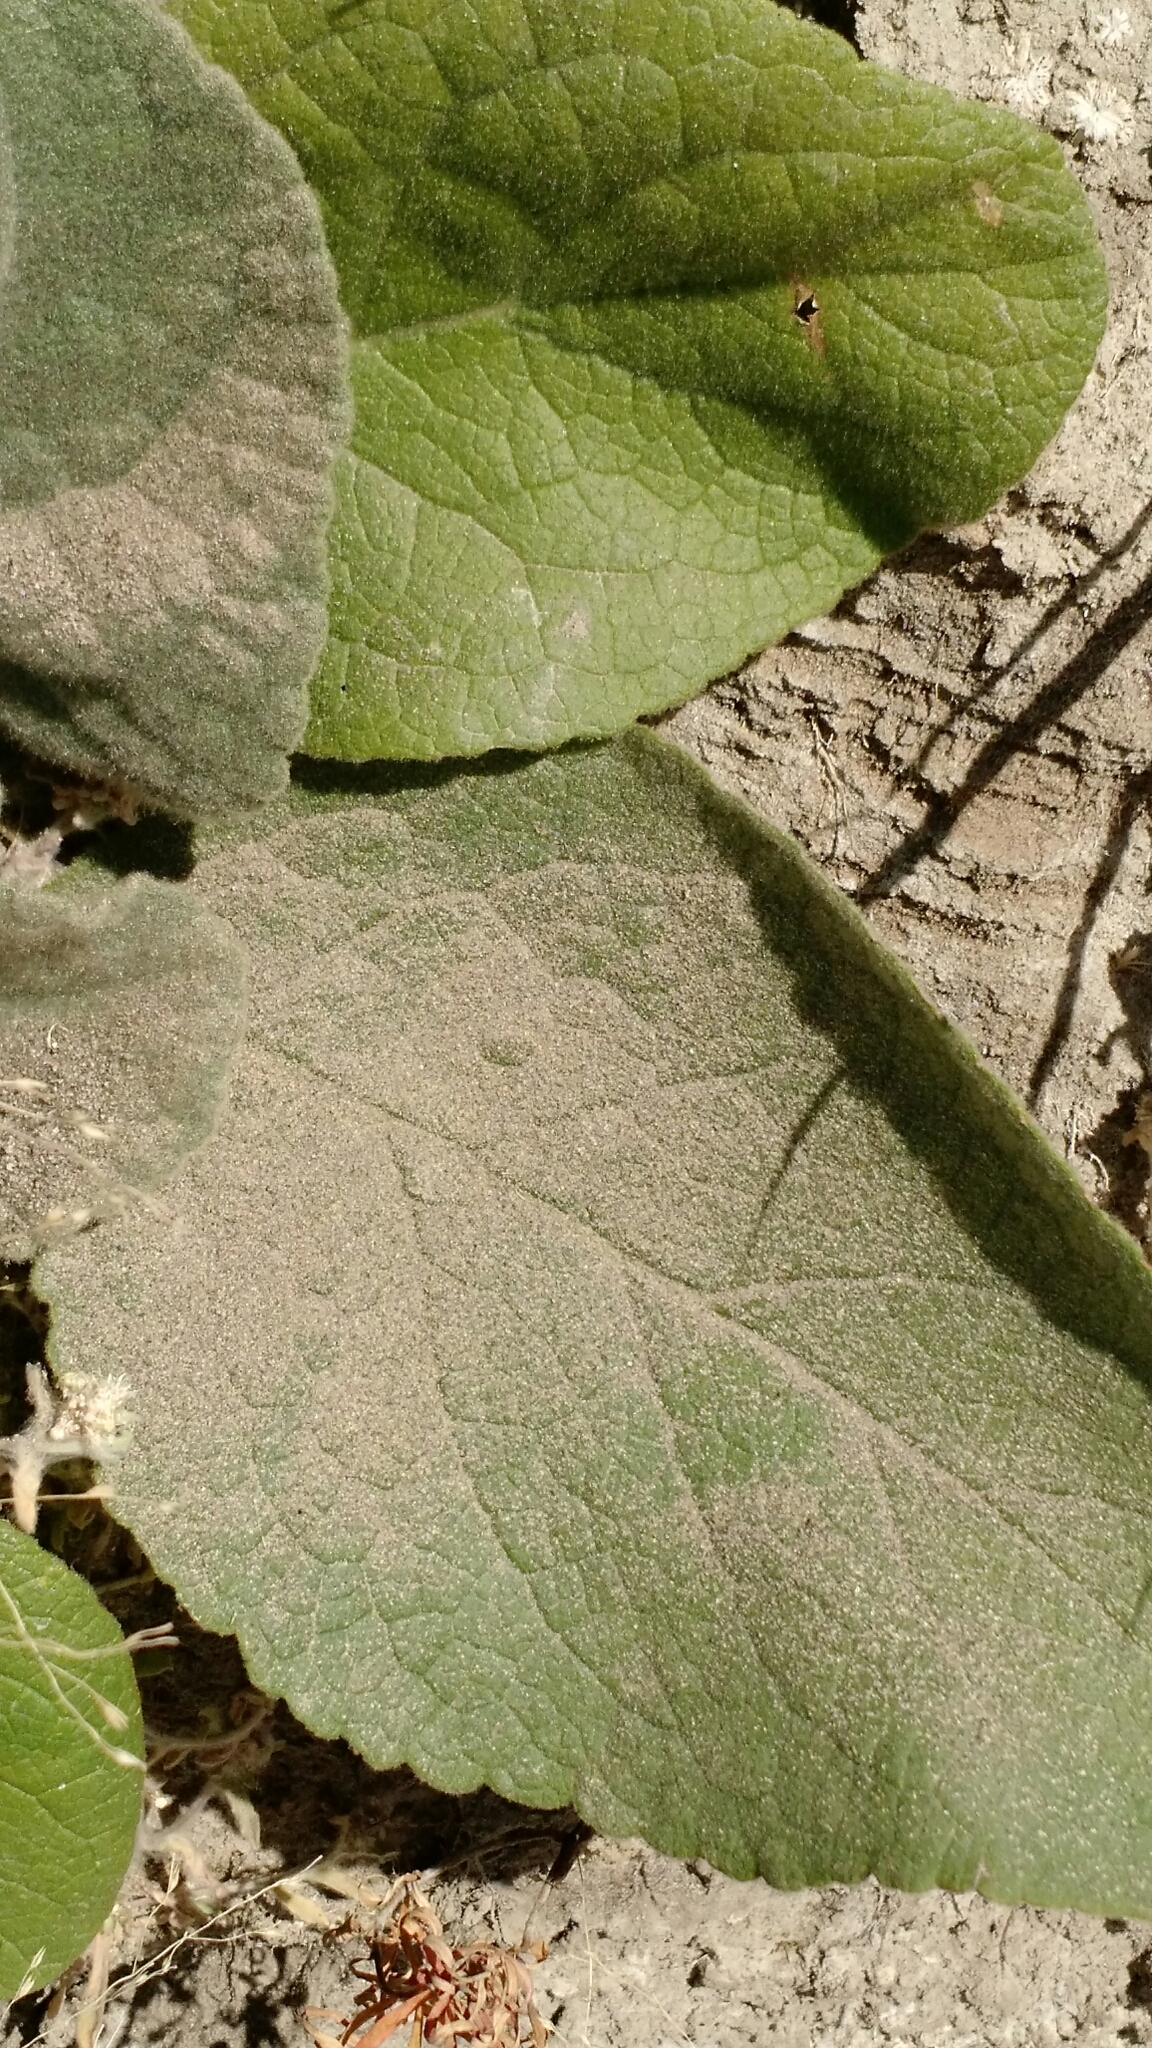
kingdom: Plantae
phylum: Tracheophyta
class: Magnoliopsida
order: Lamiales
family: Scrophulariaceae
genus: Verbascum
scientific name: Verbascum thapsus
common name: Common mullein
